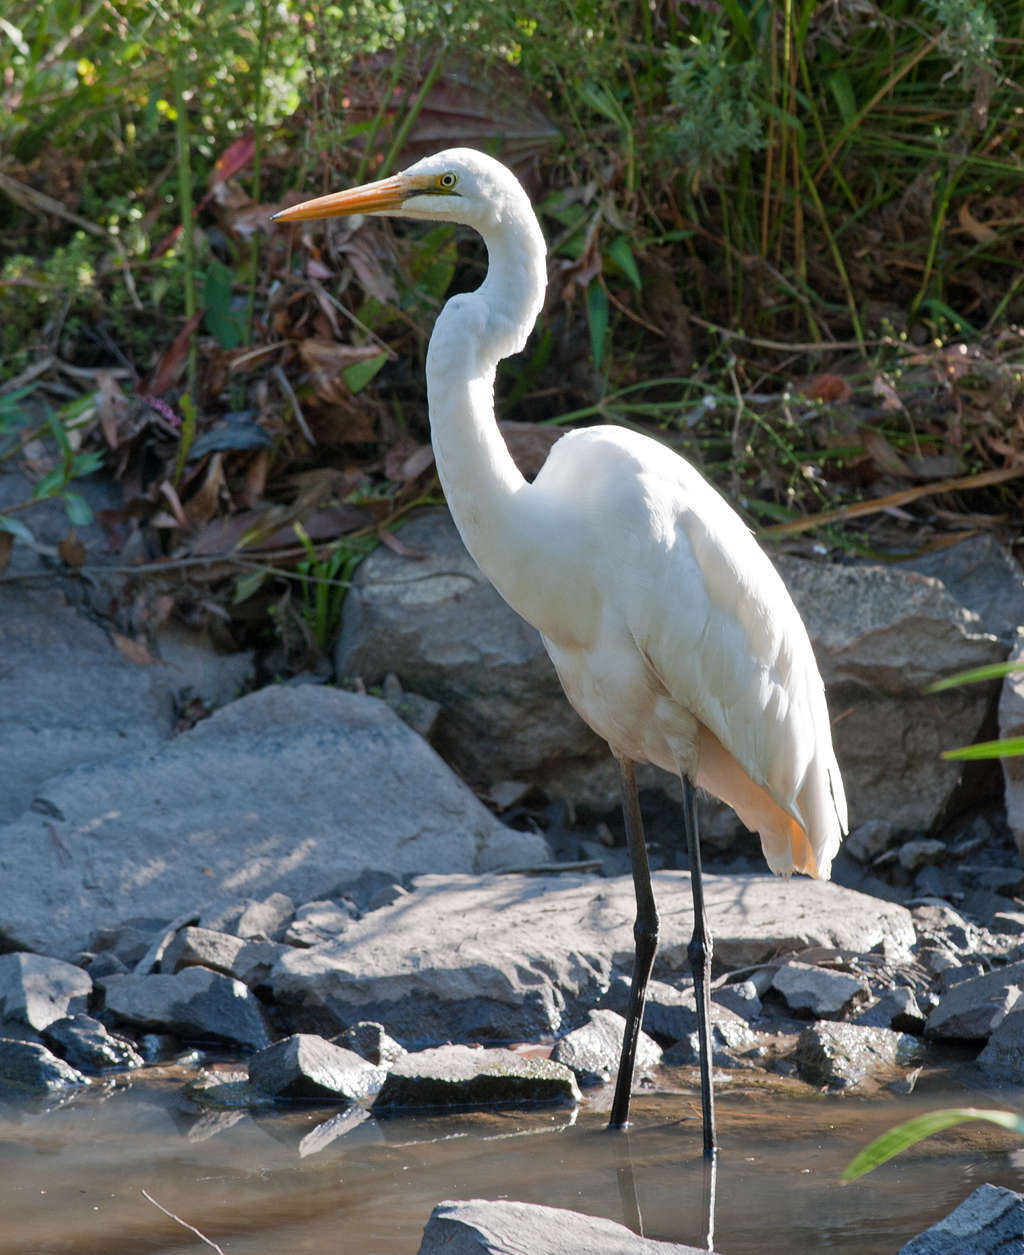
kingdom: Animalia
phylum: Chordata
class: Aves
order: Pelecaniformes
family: Ardeidae
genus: Ardea
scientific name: Ardea modesta
